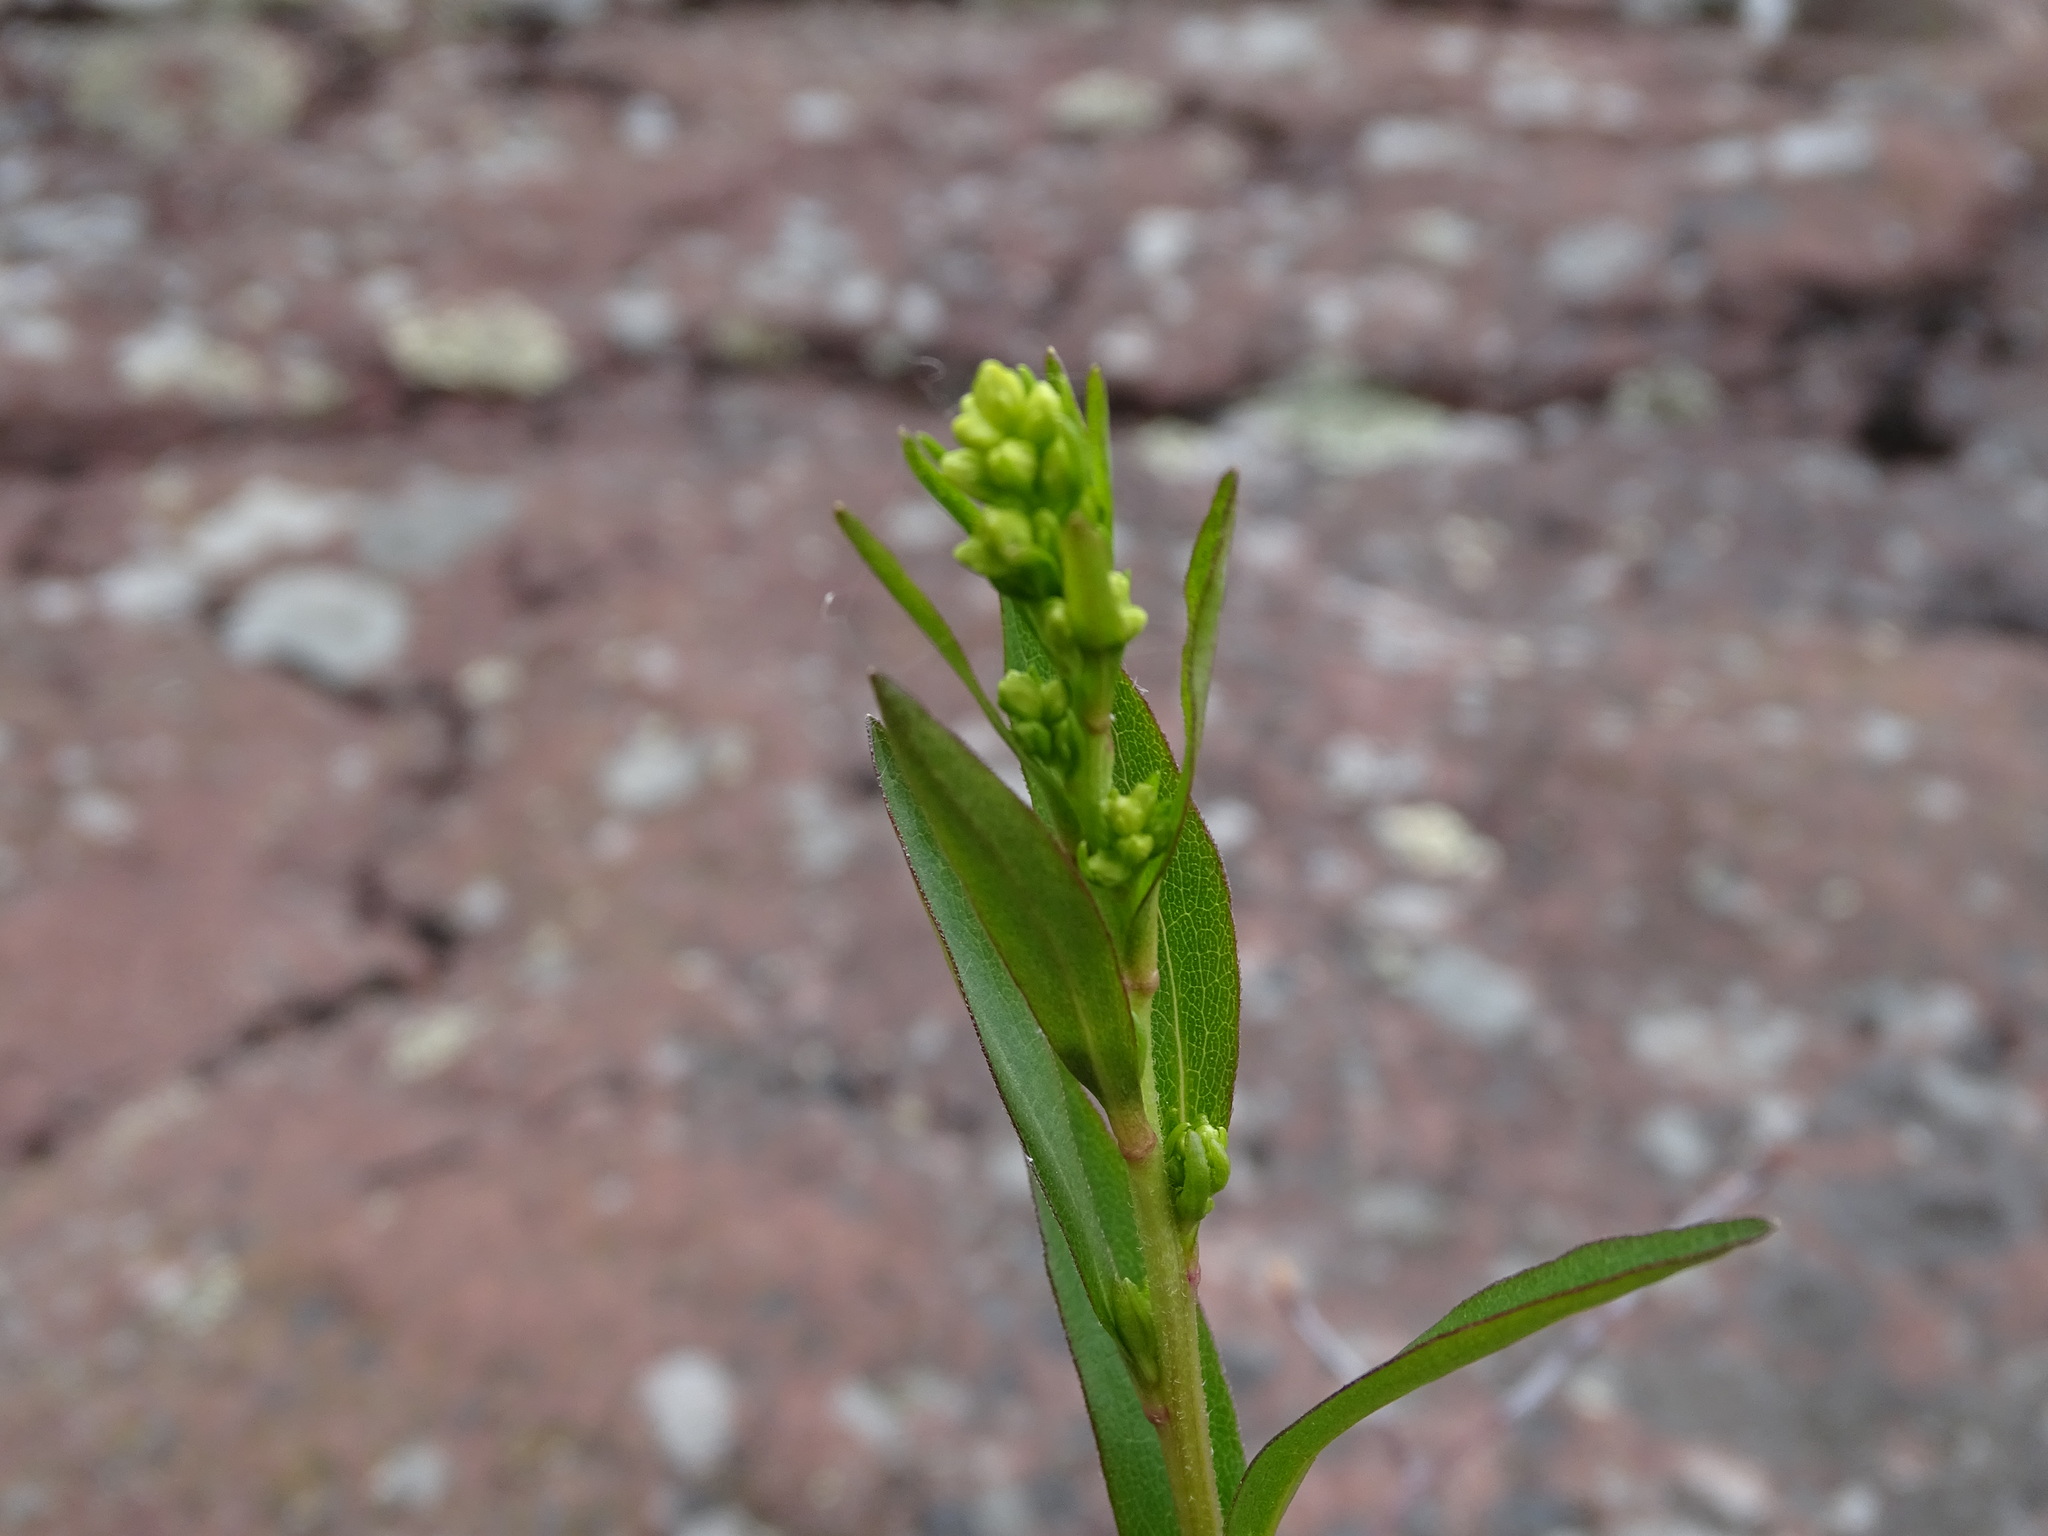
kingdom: Plantae
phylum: Tracheophyta
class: Magnoliopsida
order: Asterales
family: Asteraceae
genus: Solidago
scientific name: Solidago juncea
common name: Early goldenrod
